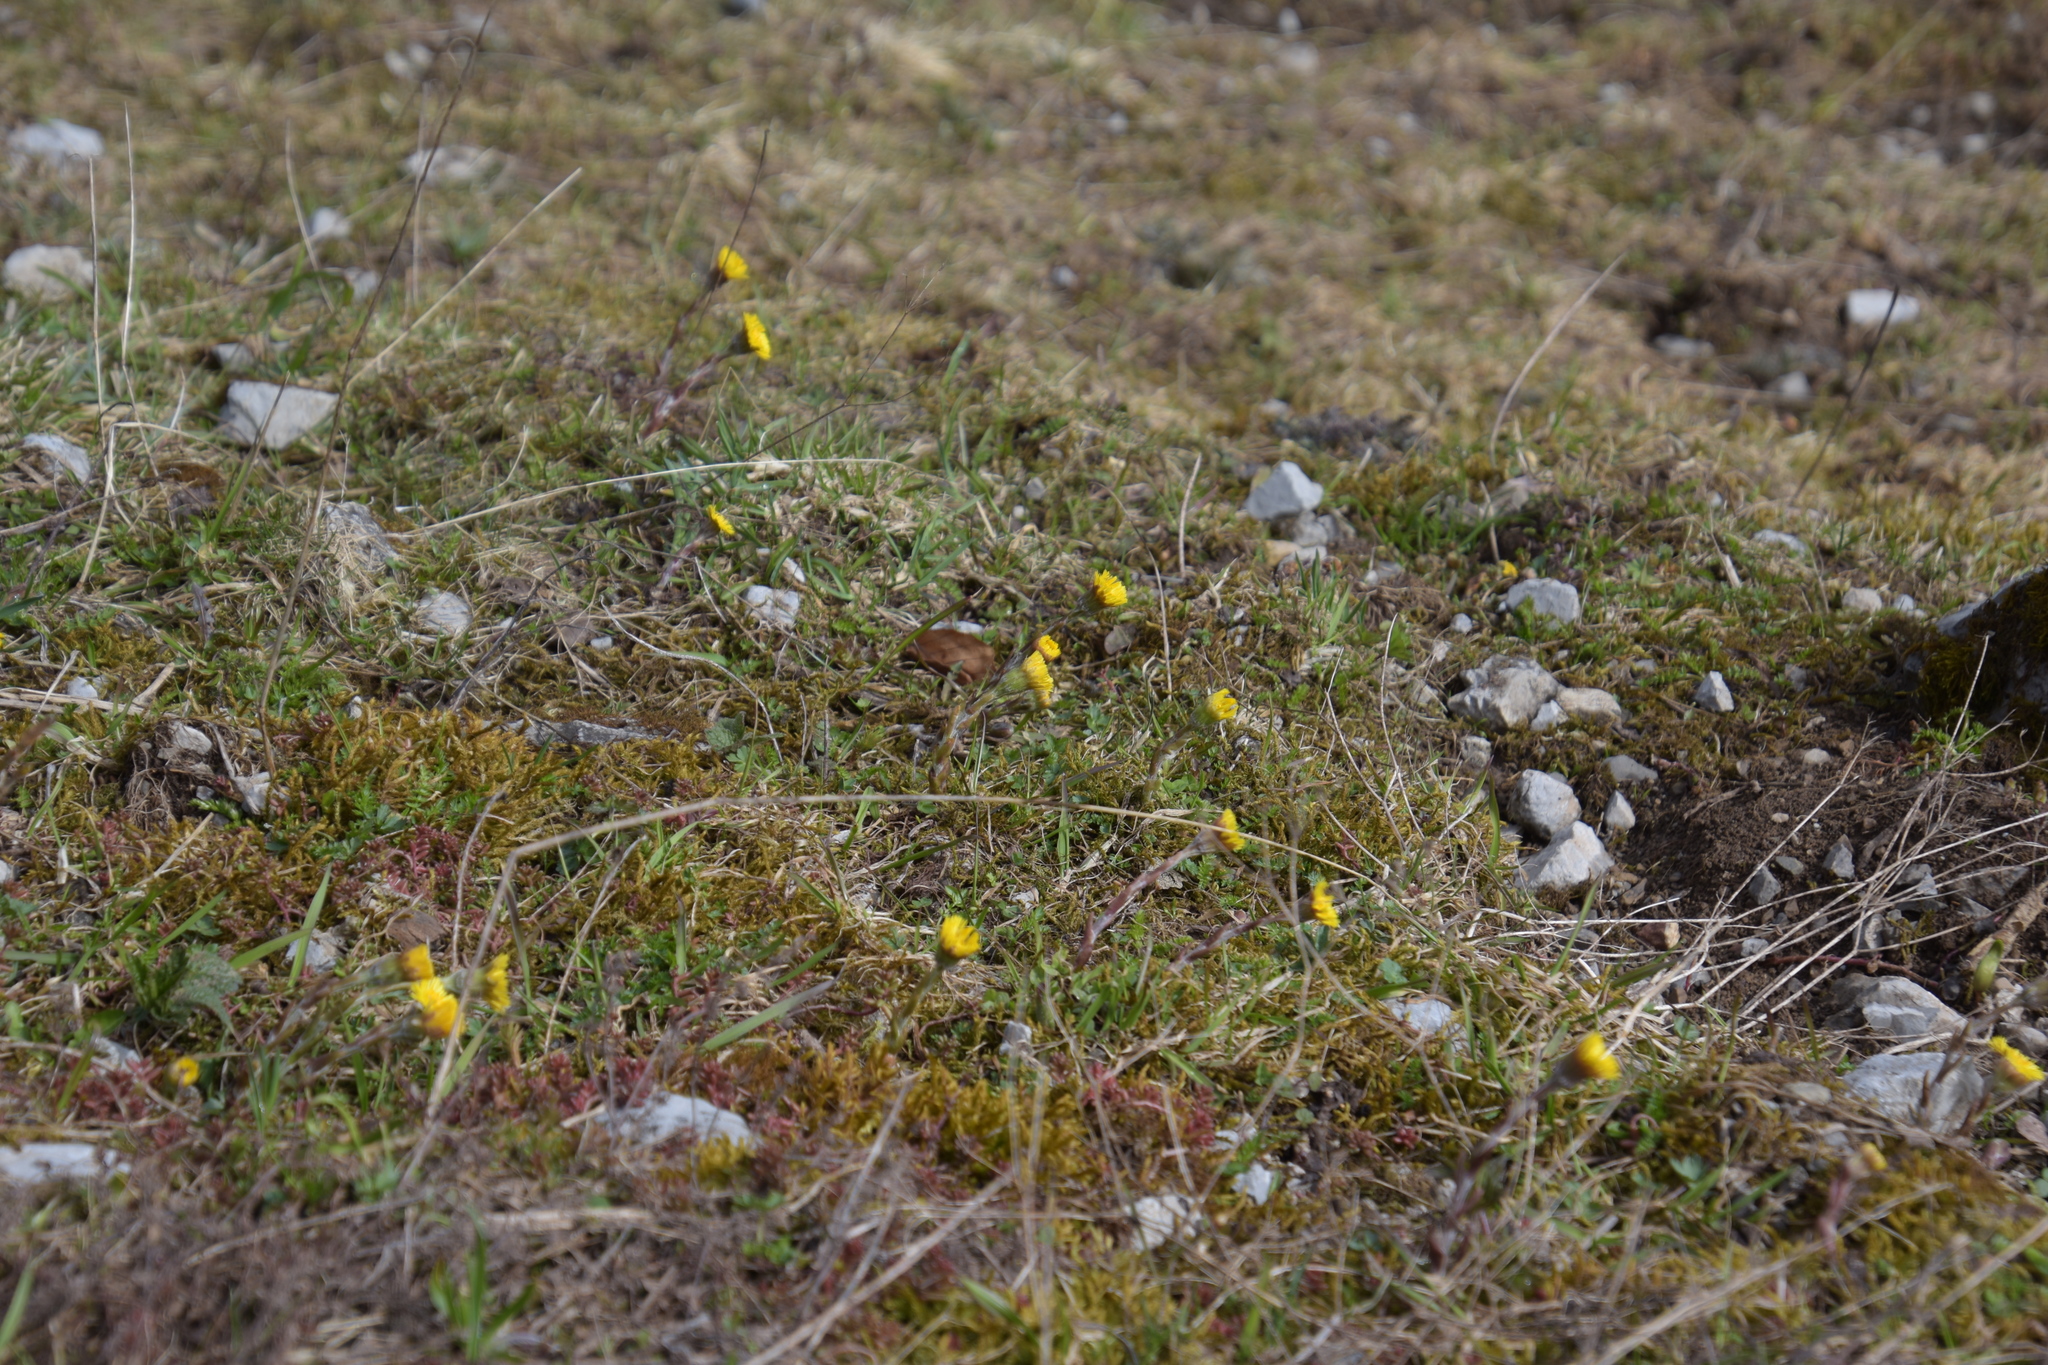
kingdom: Plantae
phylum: Tracheophyta
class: Magnoliopsida
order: Asterales
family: Asteraceae
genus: Tussilago
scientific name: Tussilago farfara
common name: Coltsfoot
